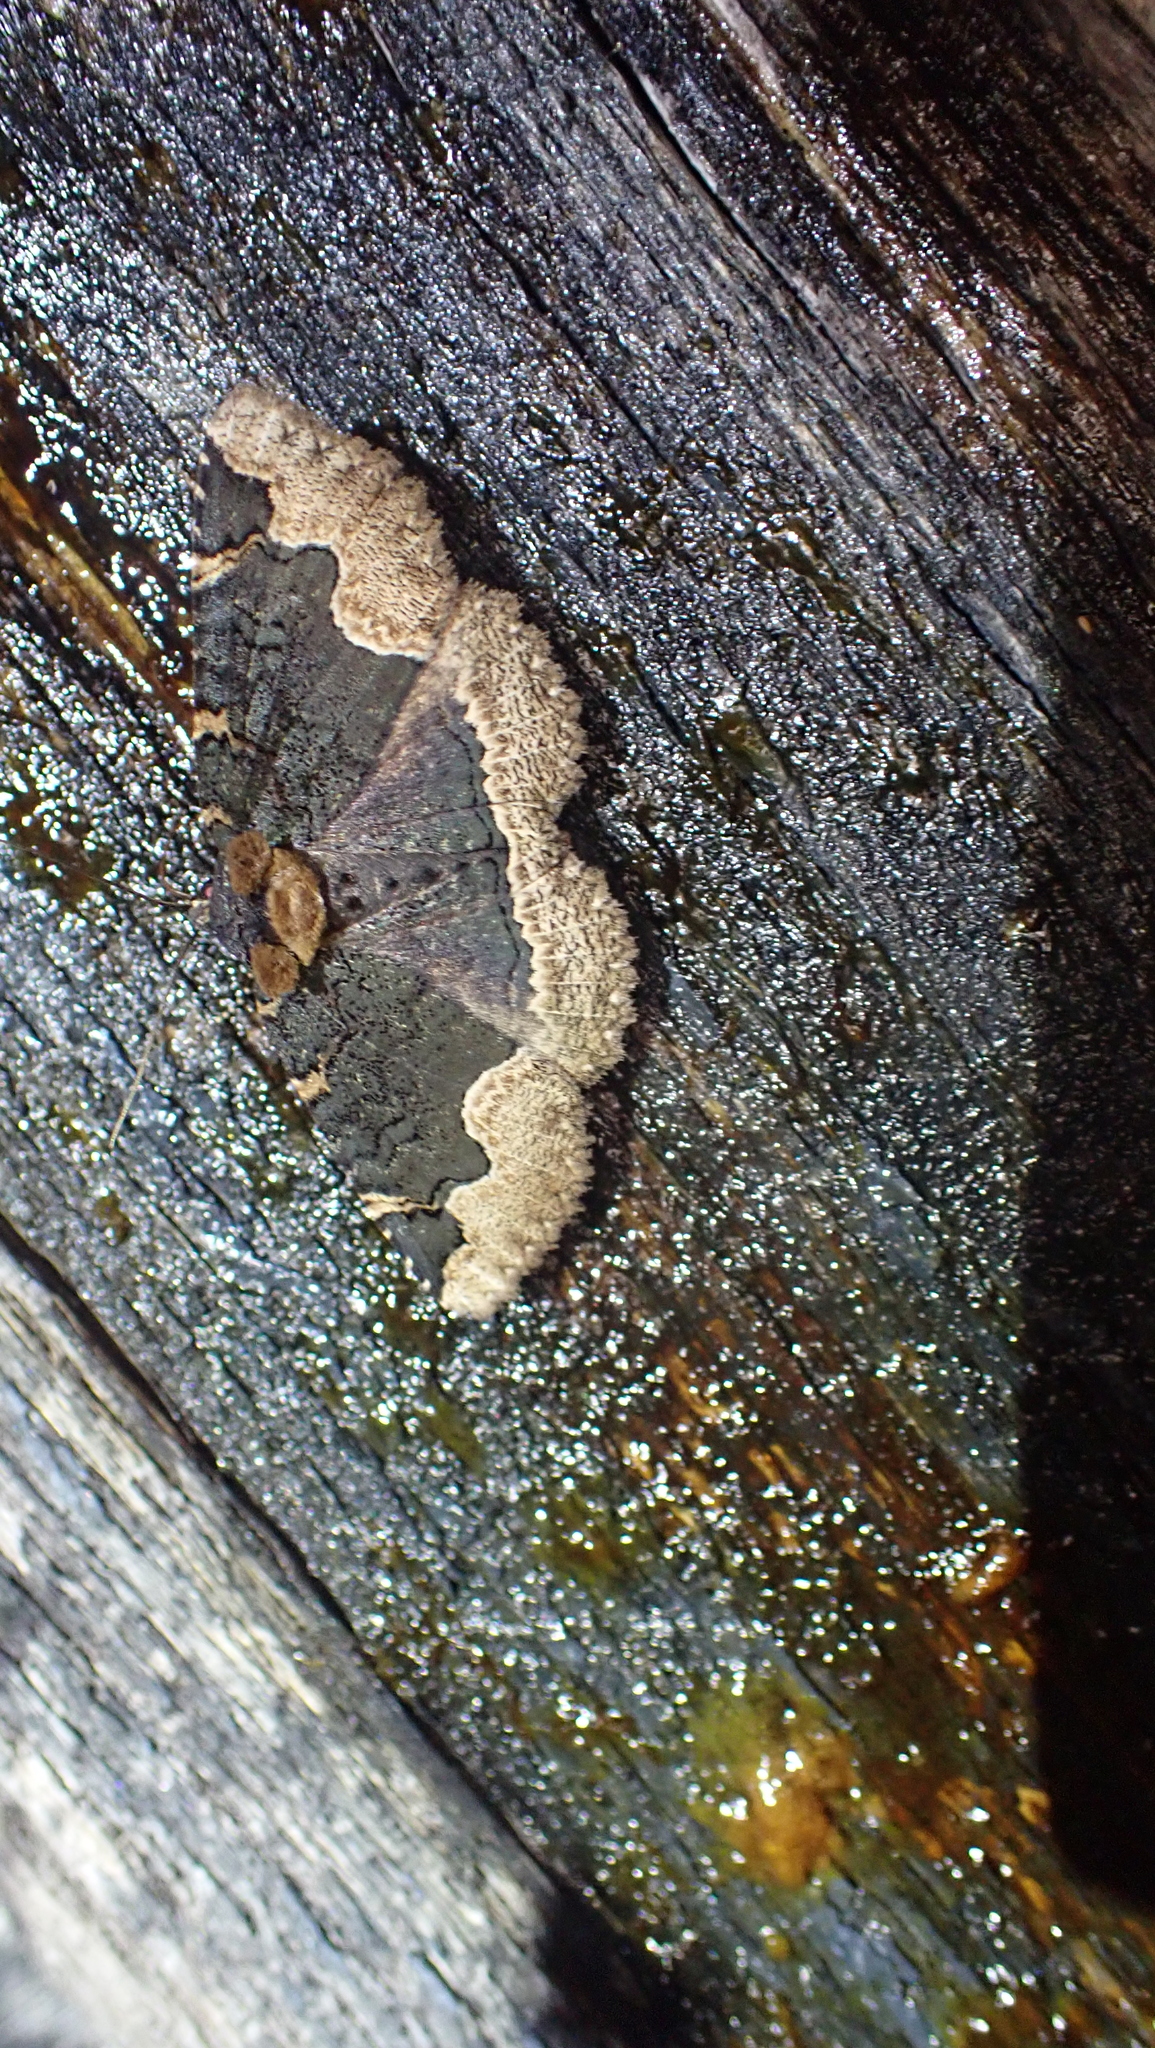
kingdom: Animalia
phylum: Arthropoda
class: Insecta
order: Lepidoptera
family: Erebidae
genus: Zale
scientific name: Zale horrida
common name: Horrid zale moth
